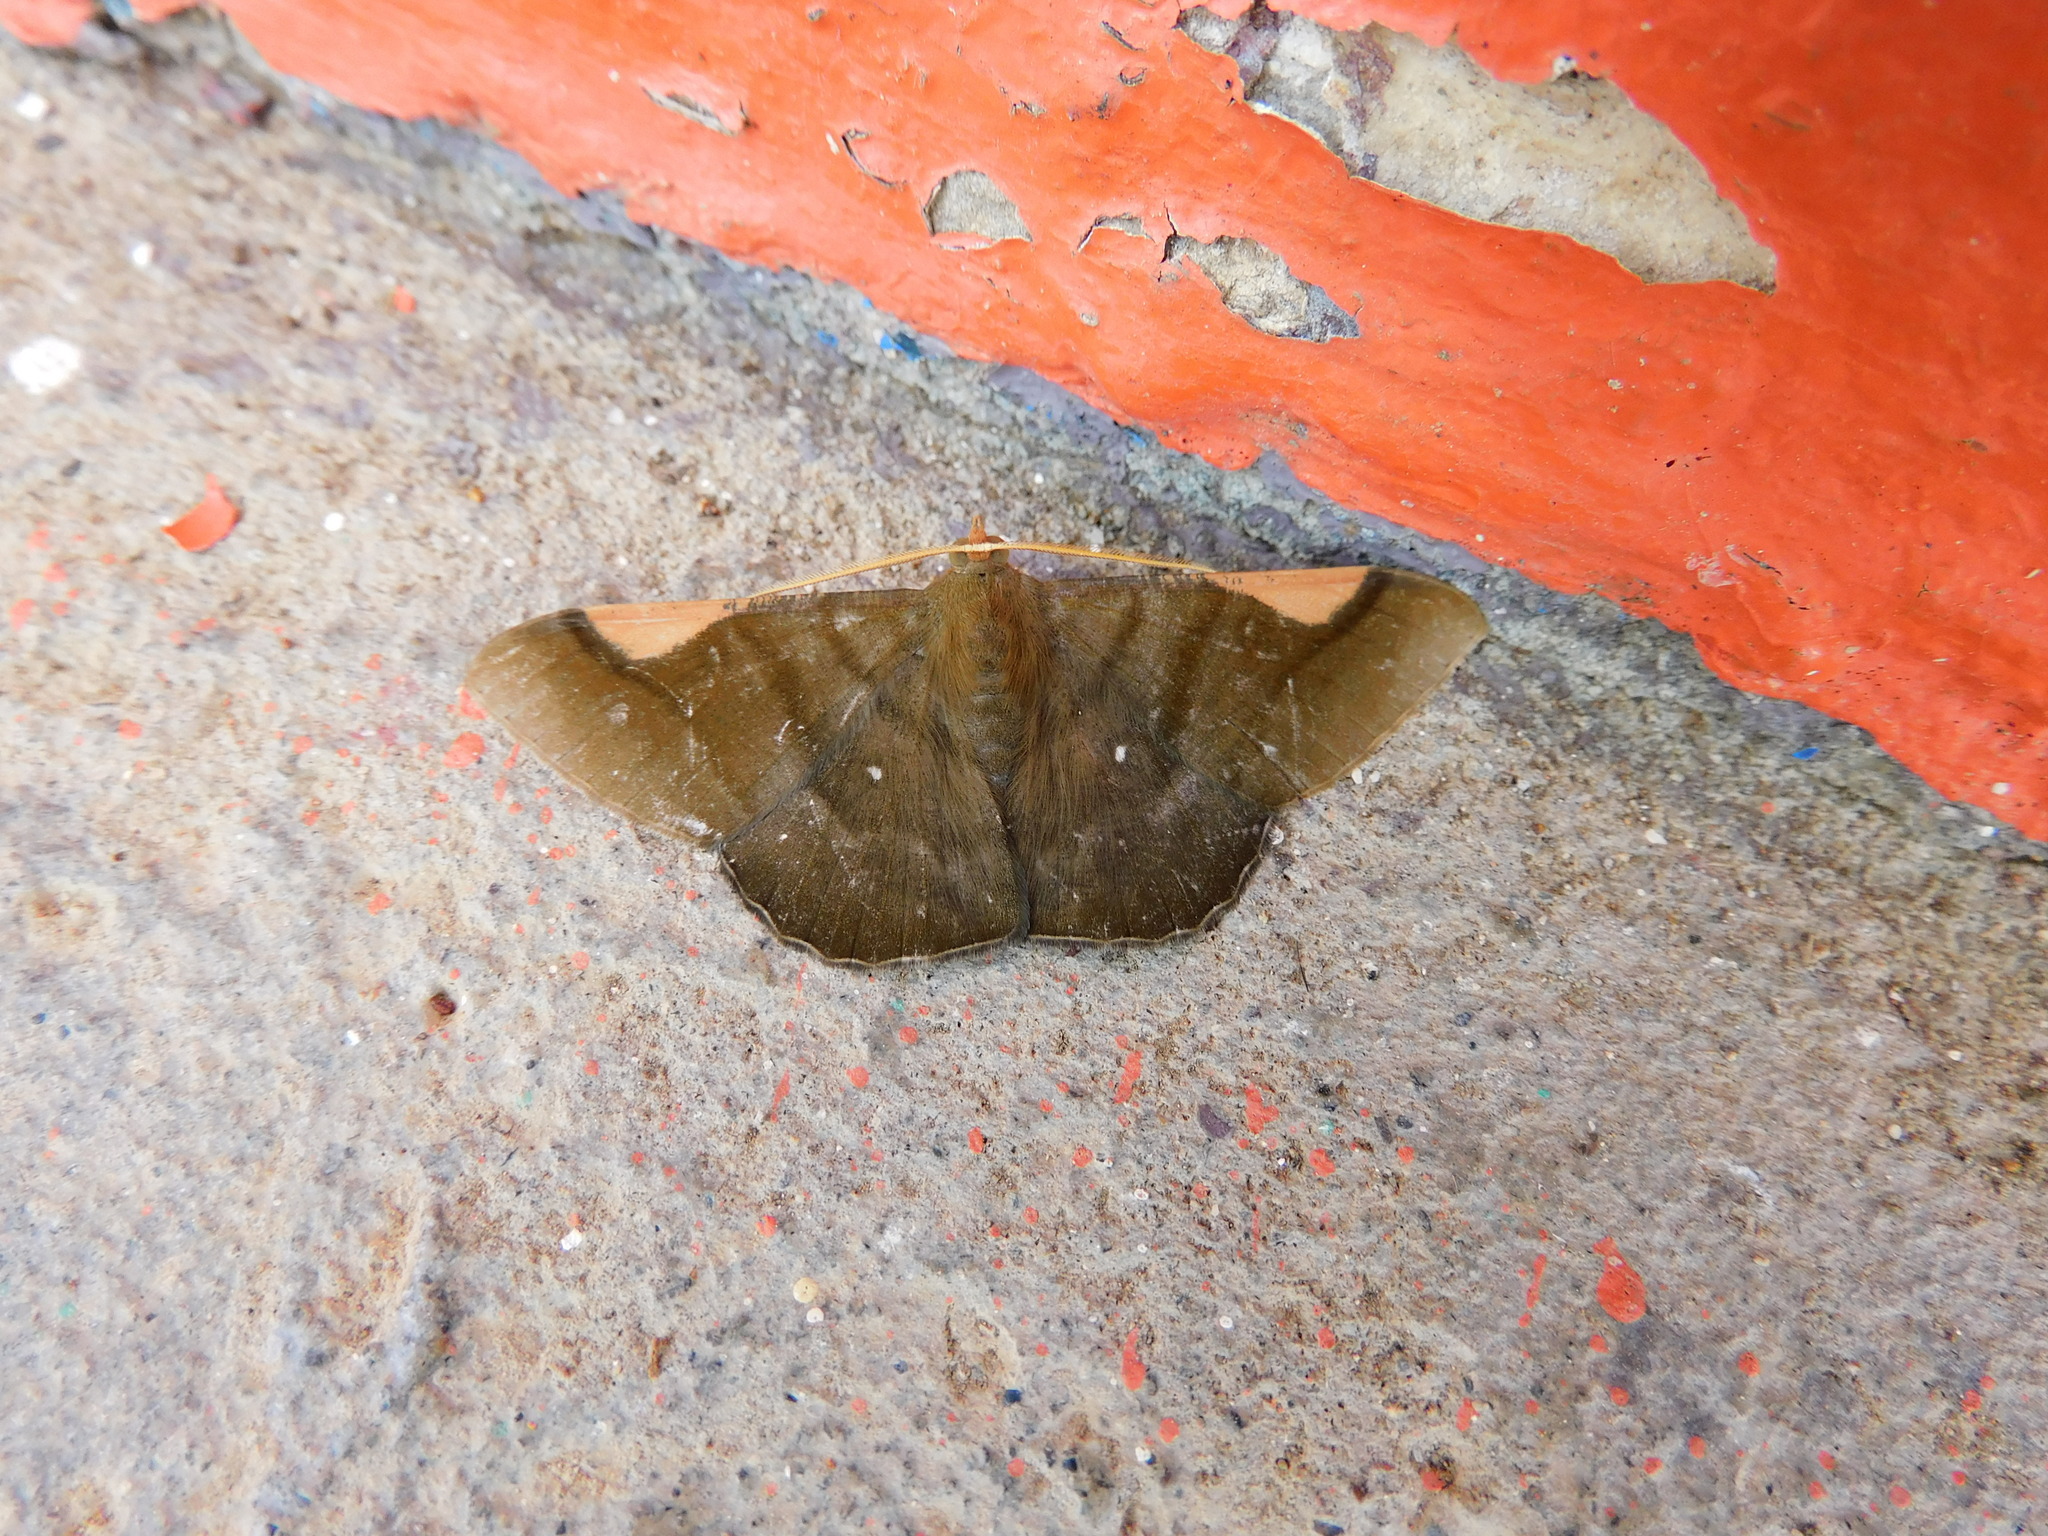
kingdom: Animalia
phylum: Arthropoda
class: Insecta
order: Lepidoptera
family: Geometridae
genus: Sphacelodes
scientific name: Sphacelodes vulneraria
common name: Looper moth
